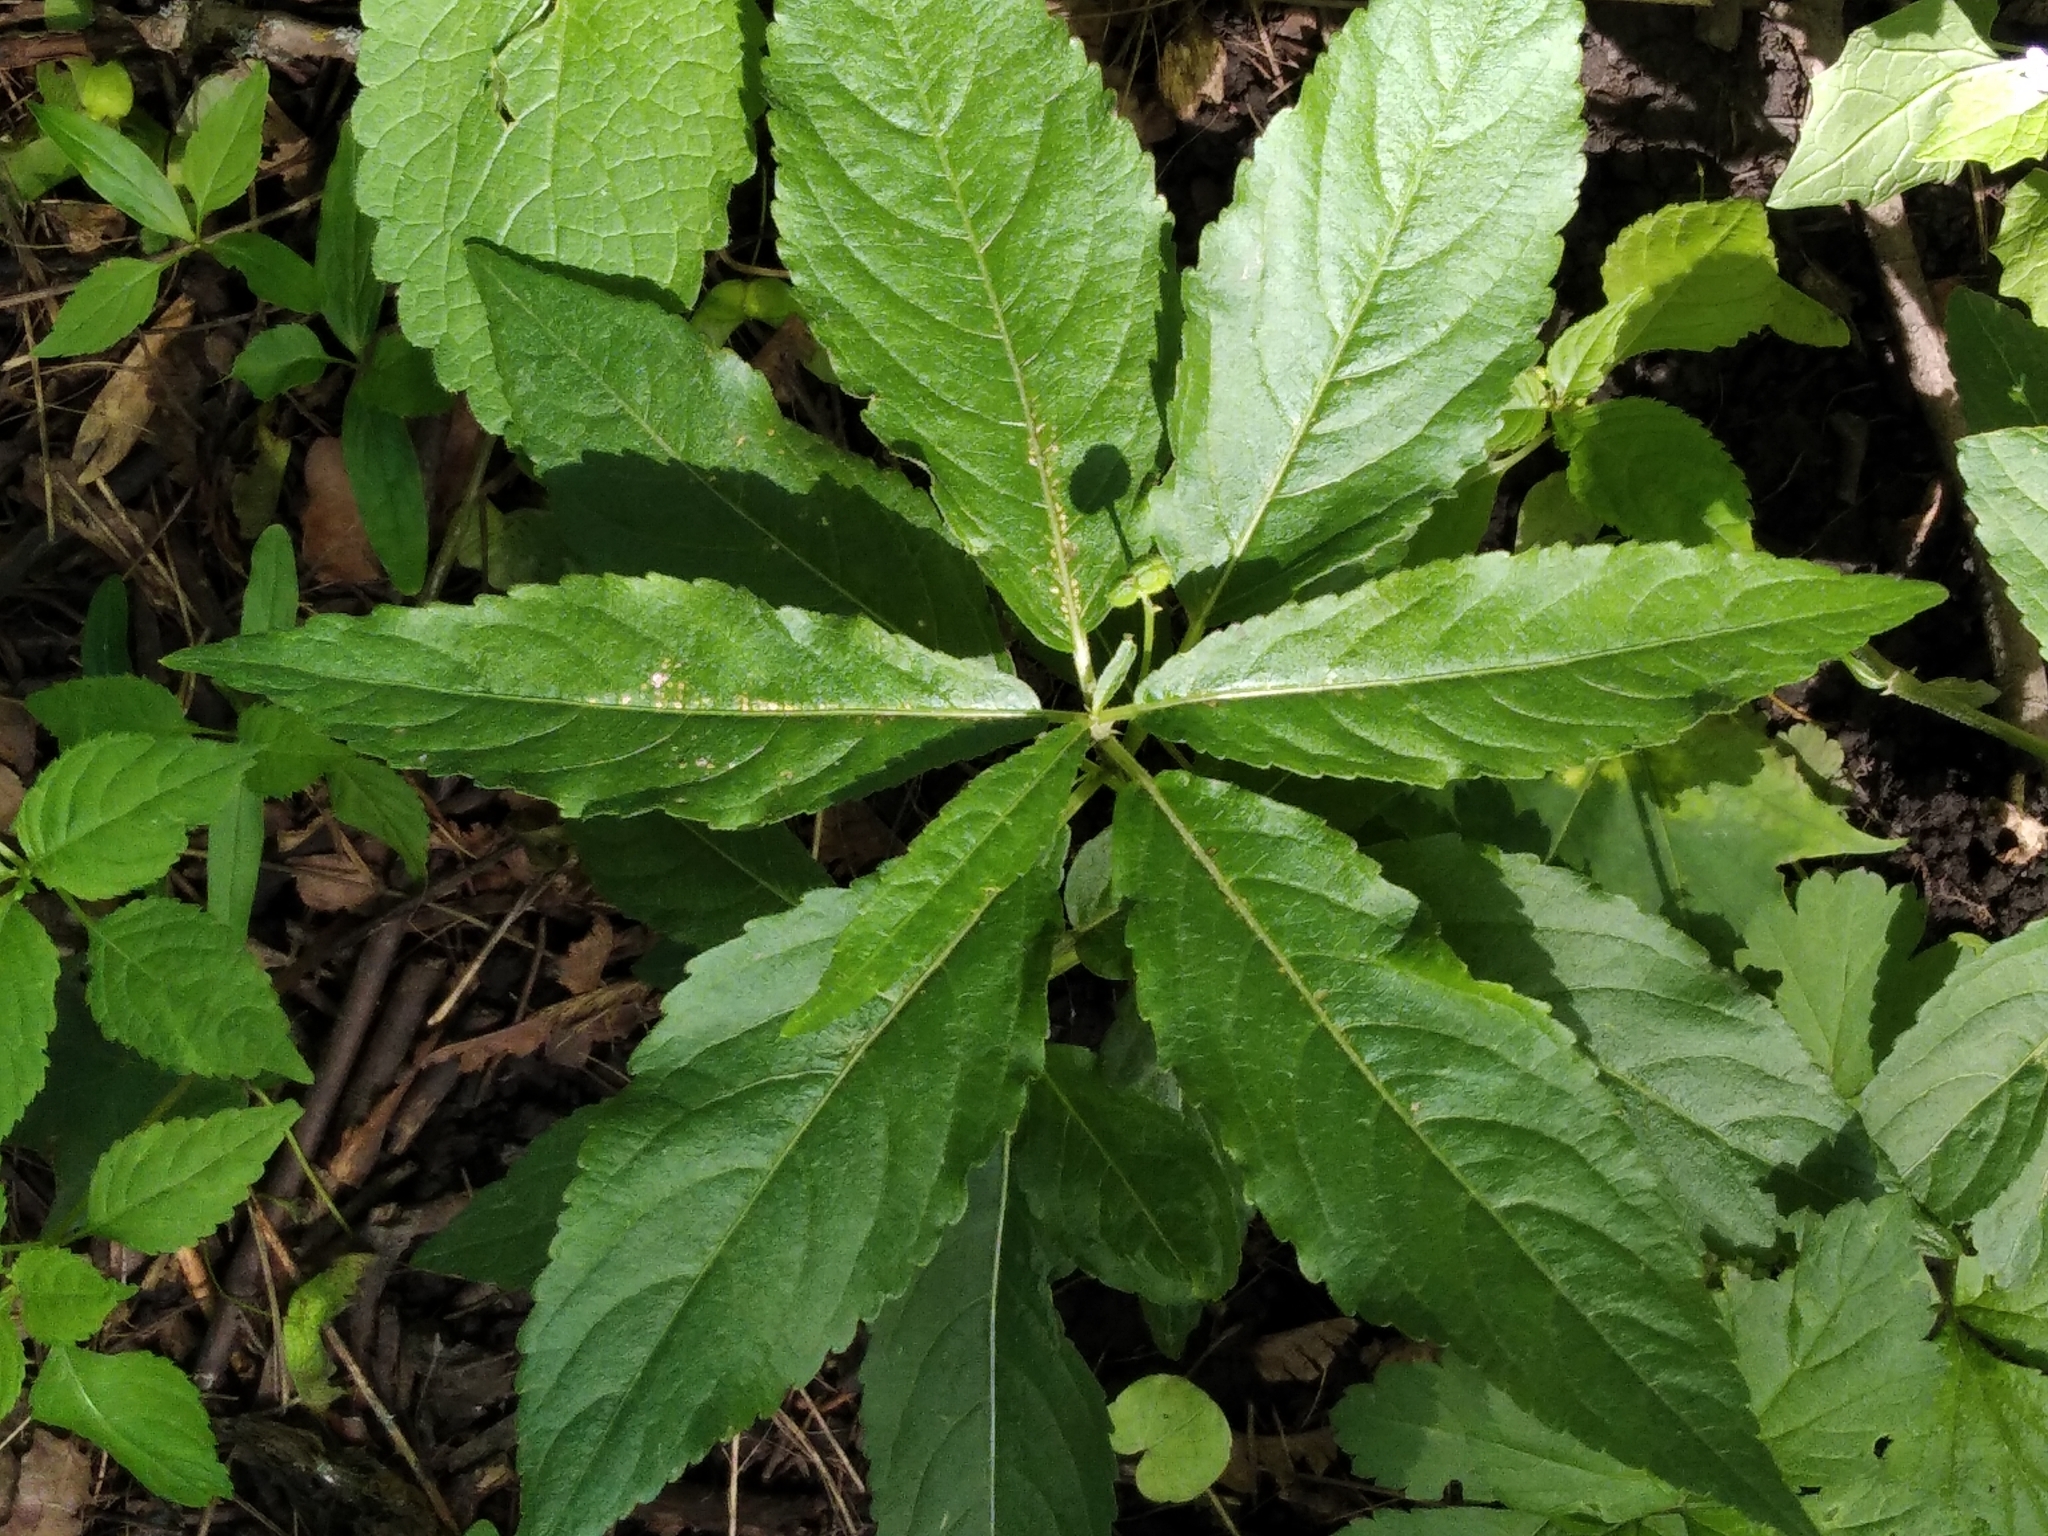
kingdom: Plantae
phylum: Tracheophyta
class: Magnoliopsida
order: Malpighiales
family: Euphorbiaceae
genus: Mercurialis
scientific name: Mercurialis perennis
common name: Dog mercury
